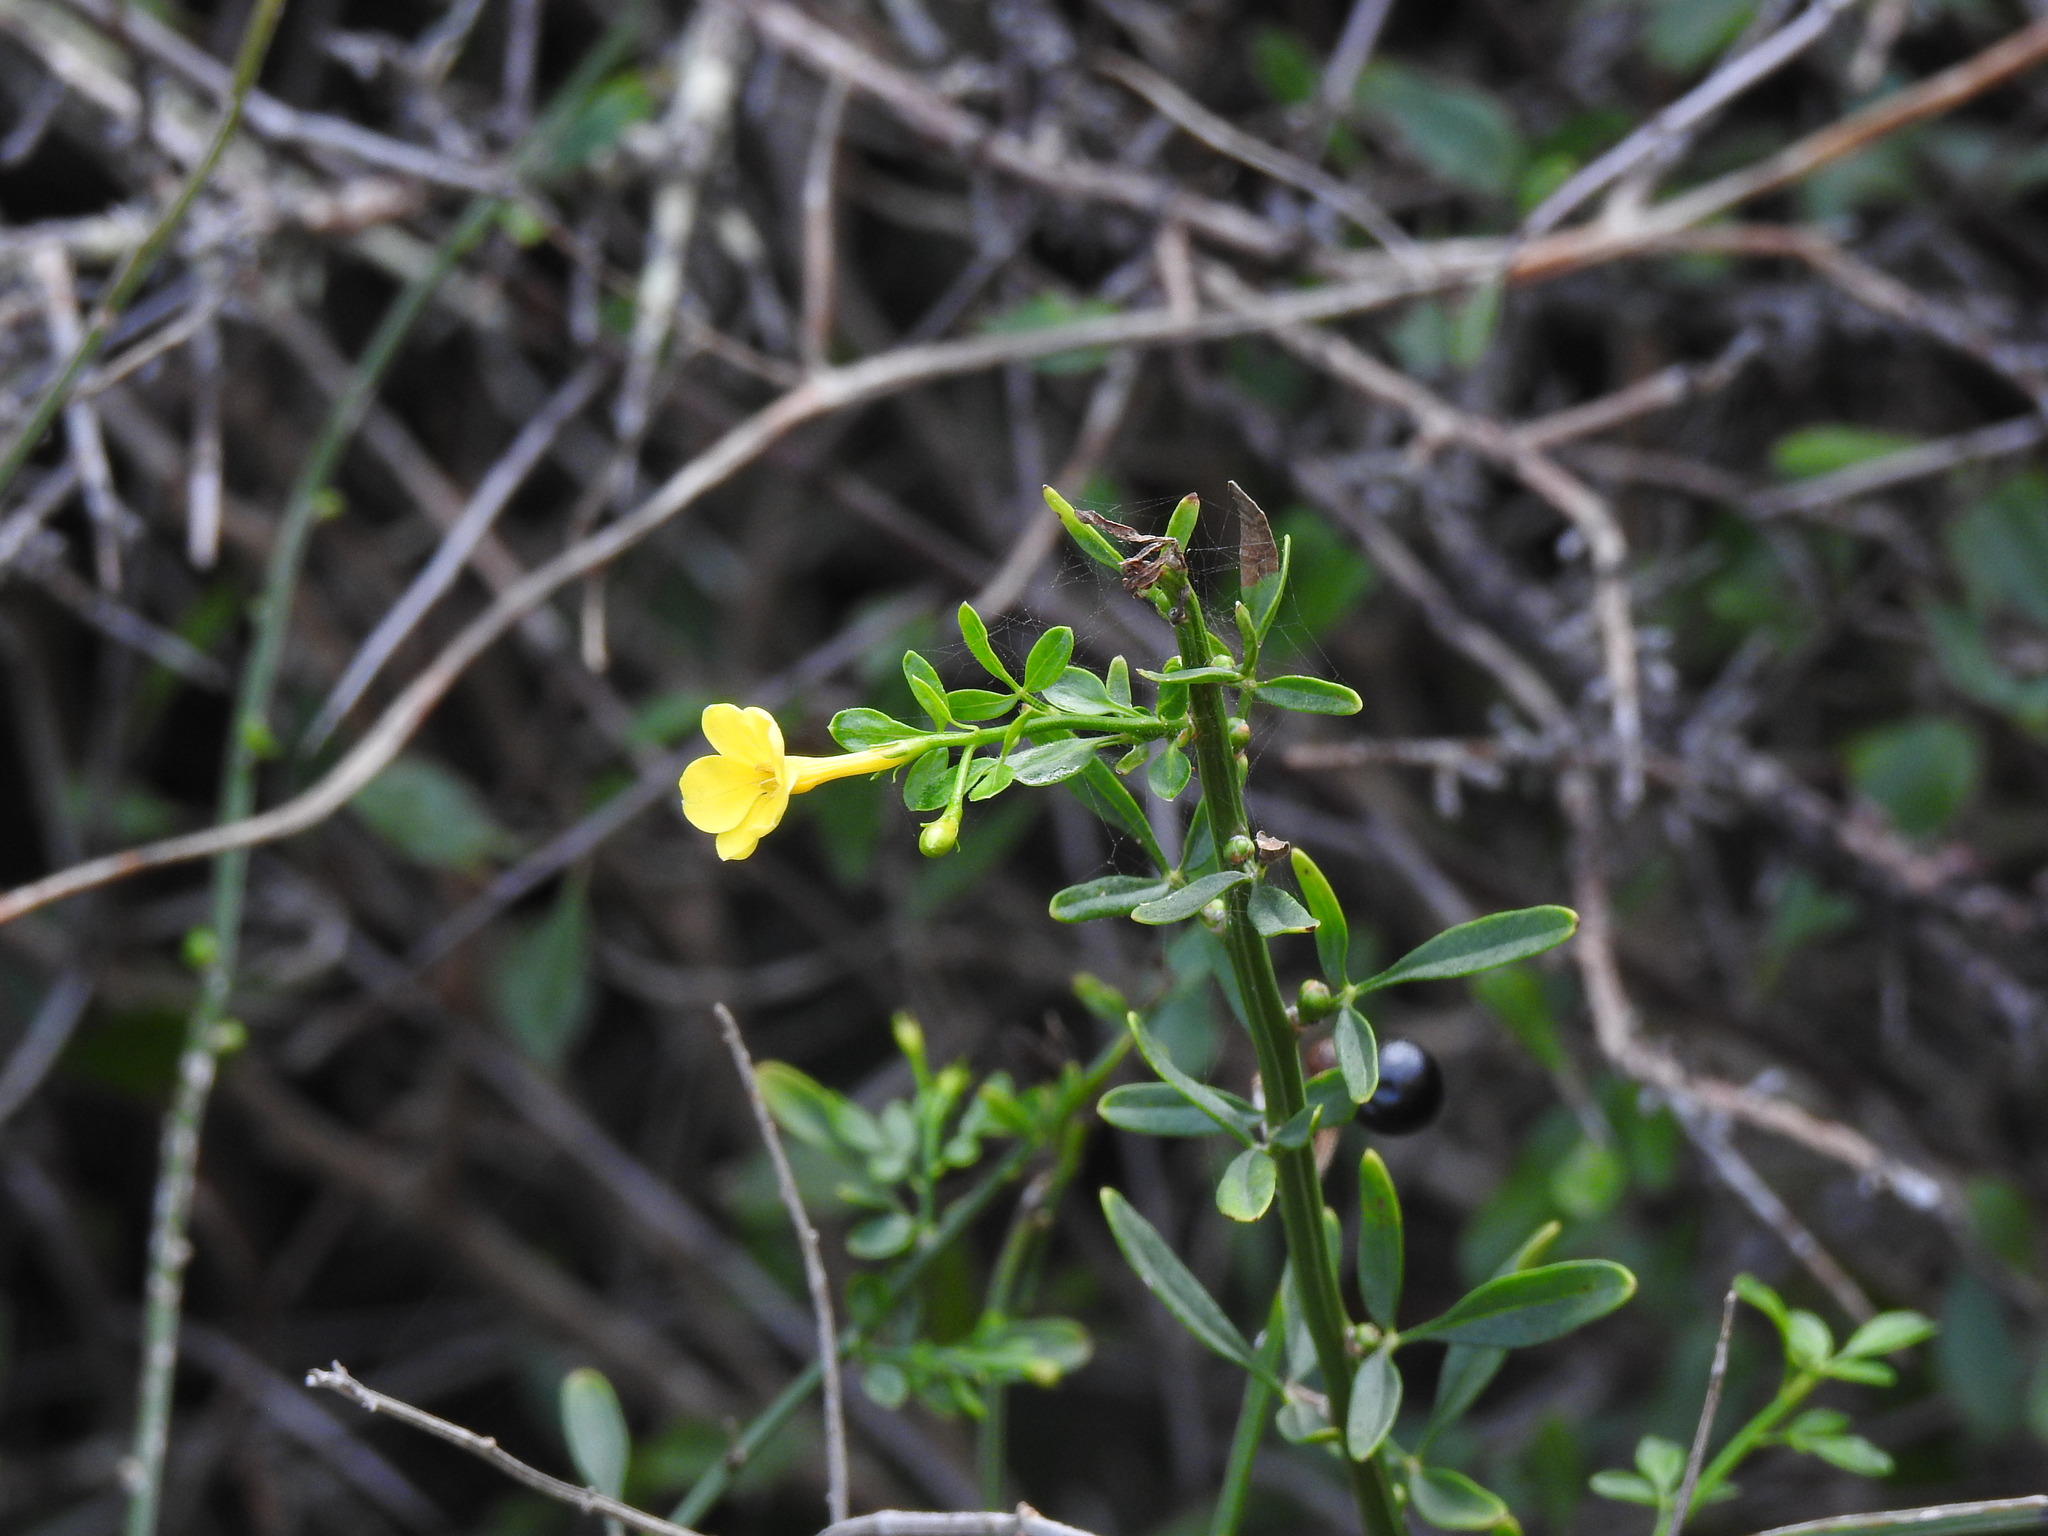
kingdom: Plantae
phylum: Tracheophyta
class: Magnoliopsida
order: Lamiales
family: Oleaceae
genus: Chrysojasminum
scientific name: Chrysojasminum fruticans
